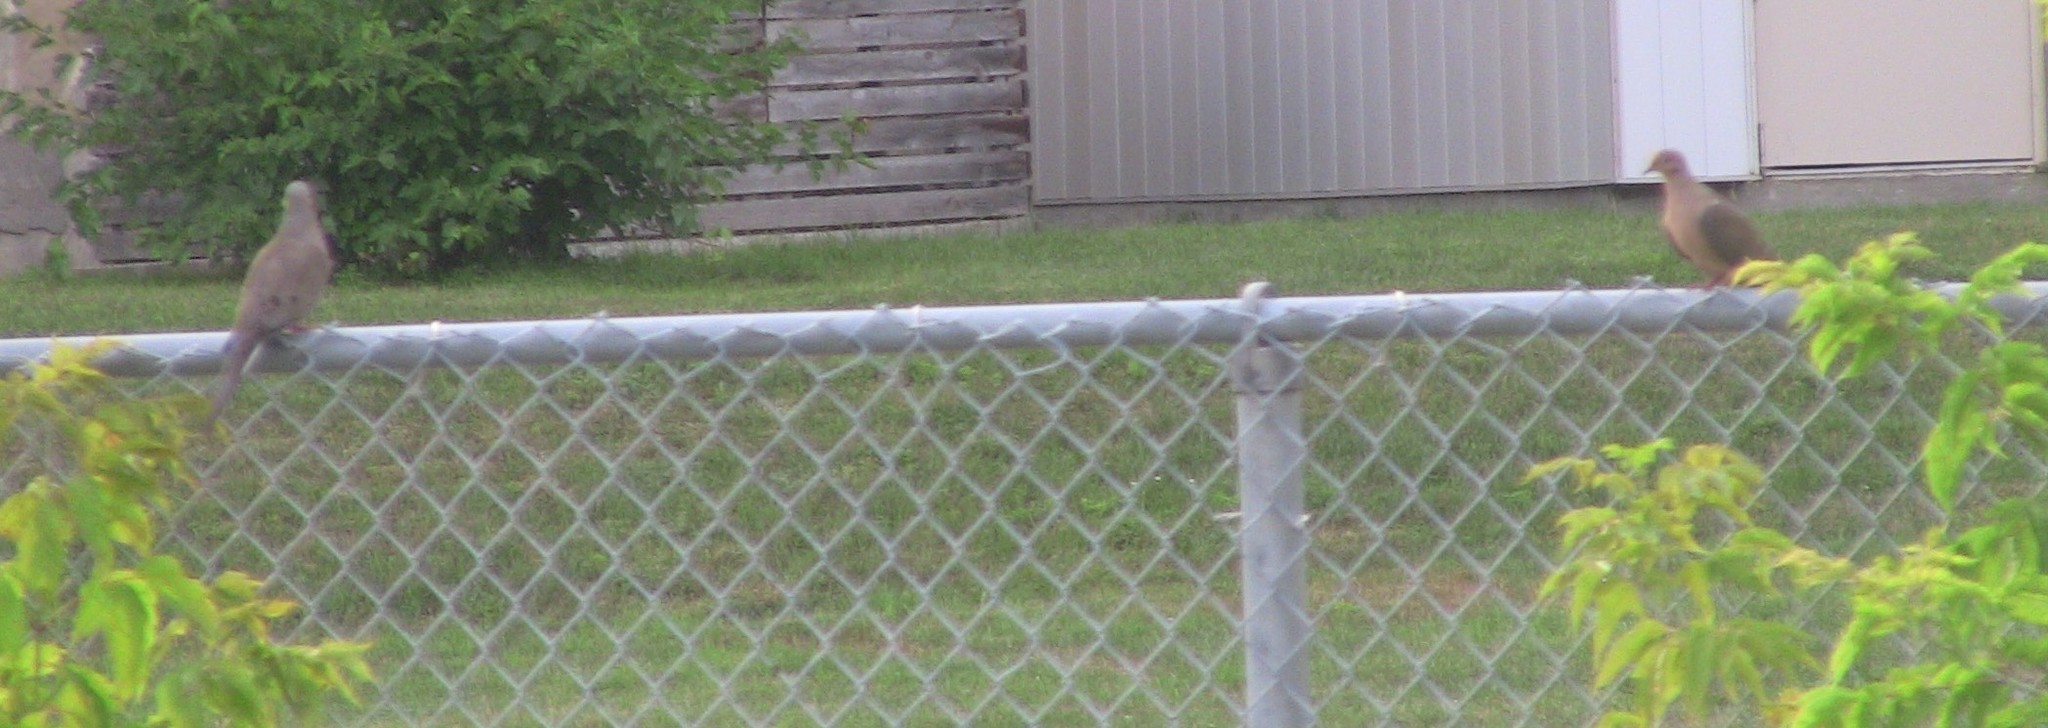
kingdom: Animalia
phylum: Chordata
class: Aves
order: Columbiformes
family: Columbidae
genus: Zenaida
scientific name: Zenaida macroura
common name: Mourning dove
